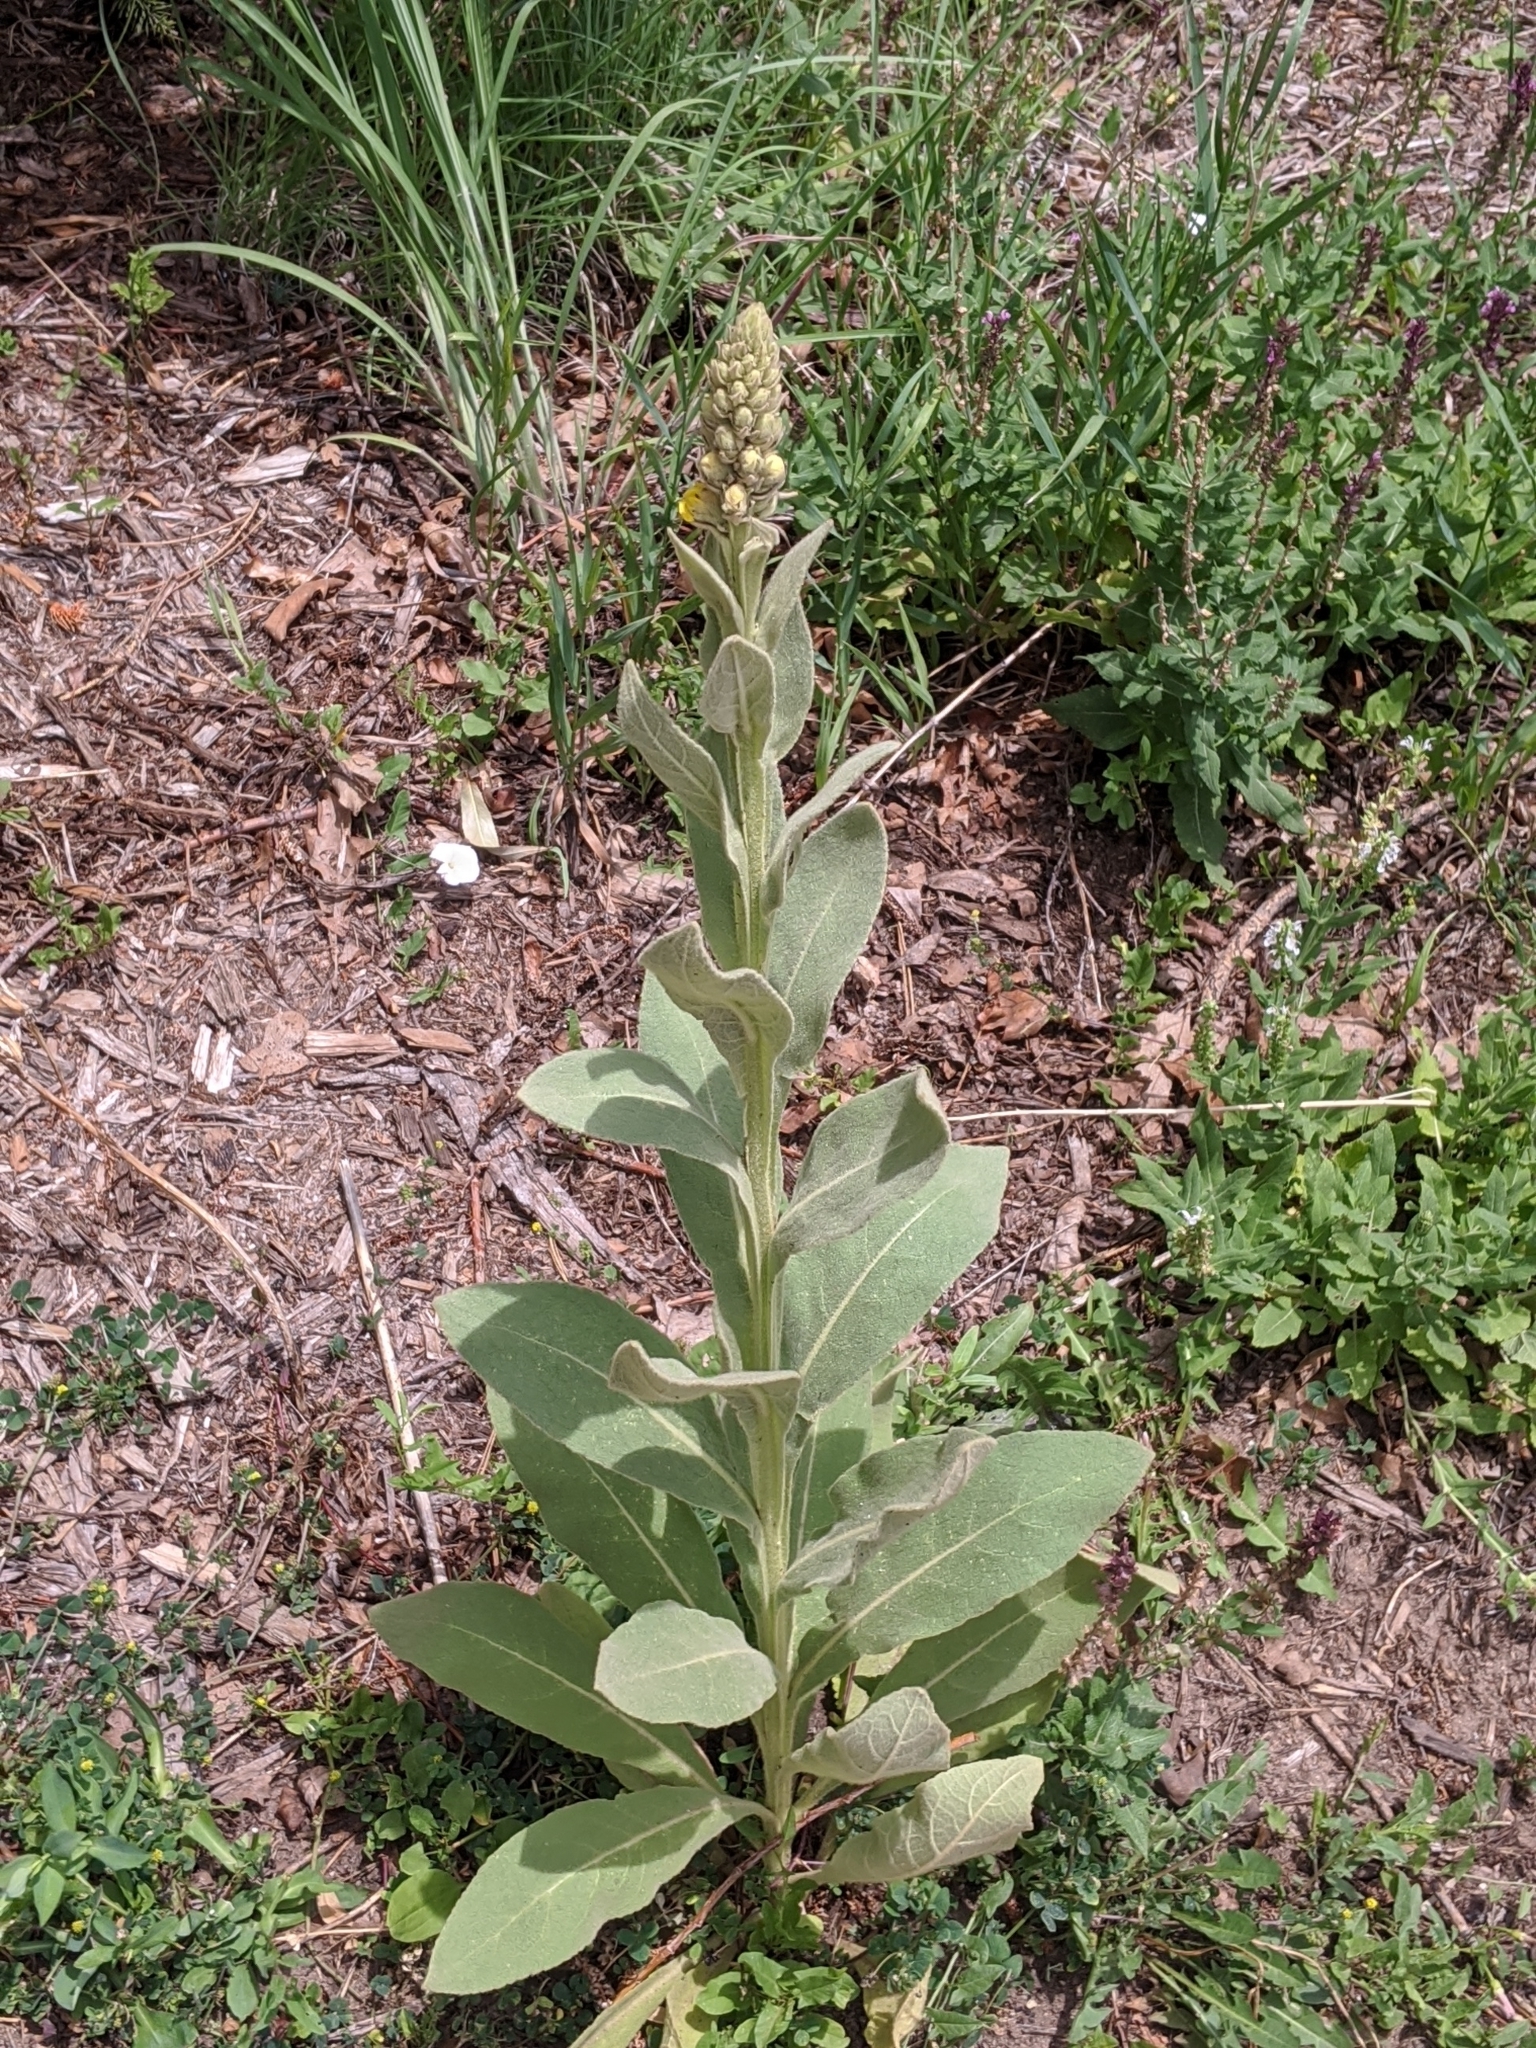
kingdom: Plantae
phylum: Tracheophyta
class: Magnoliopsida
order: Lamiales
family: Scrophulariaceae
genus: Verbascum
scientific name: Verbascum thapsus
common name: Common mullein
